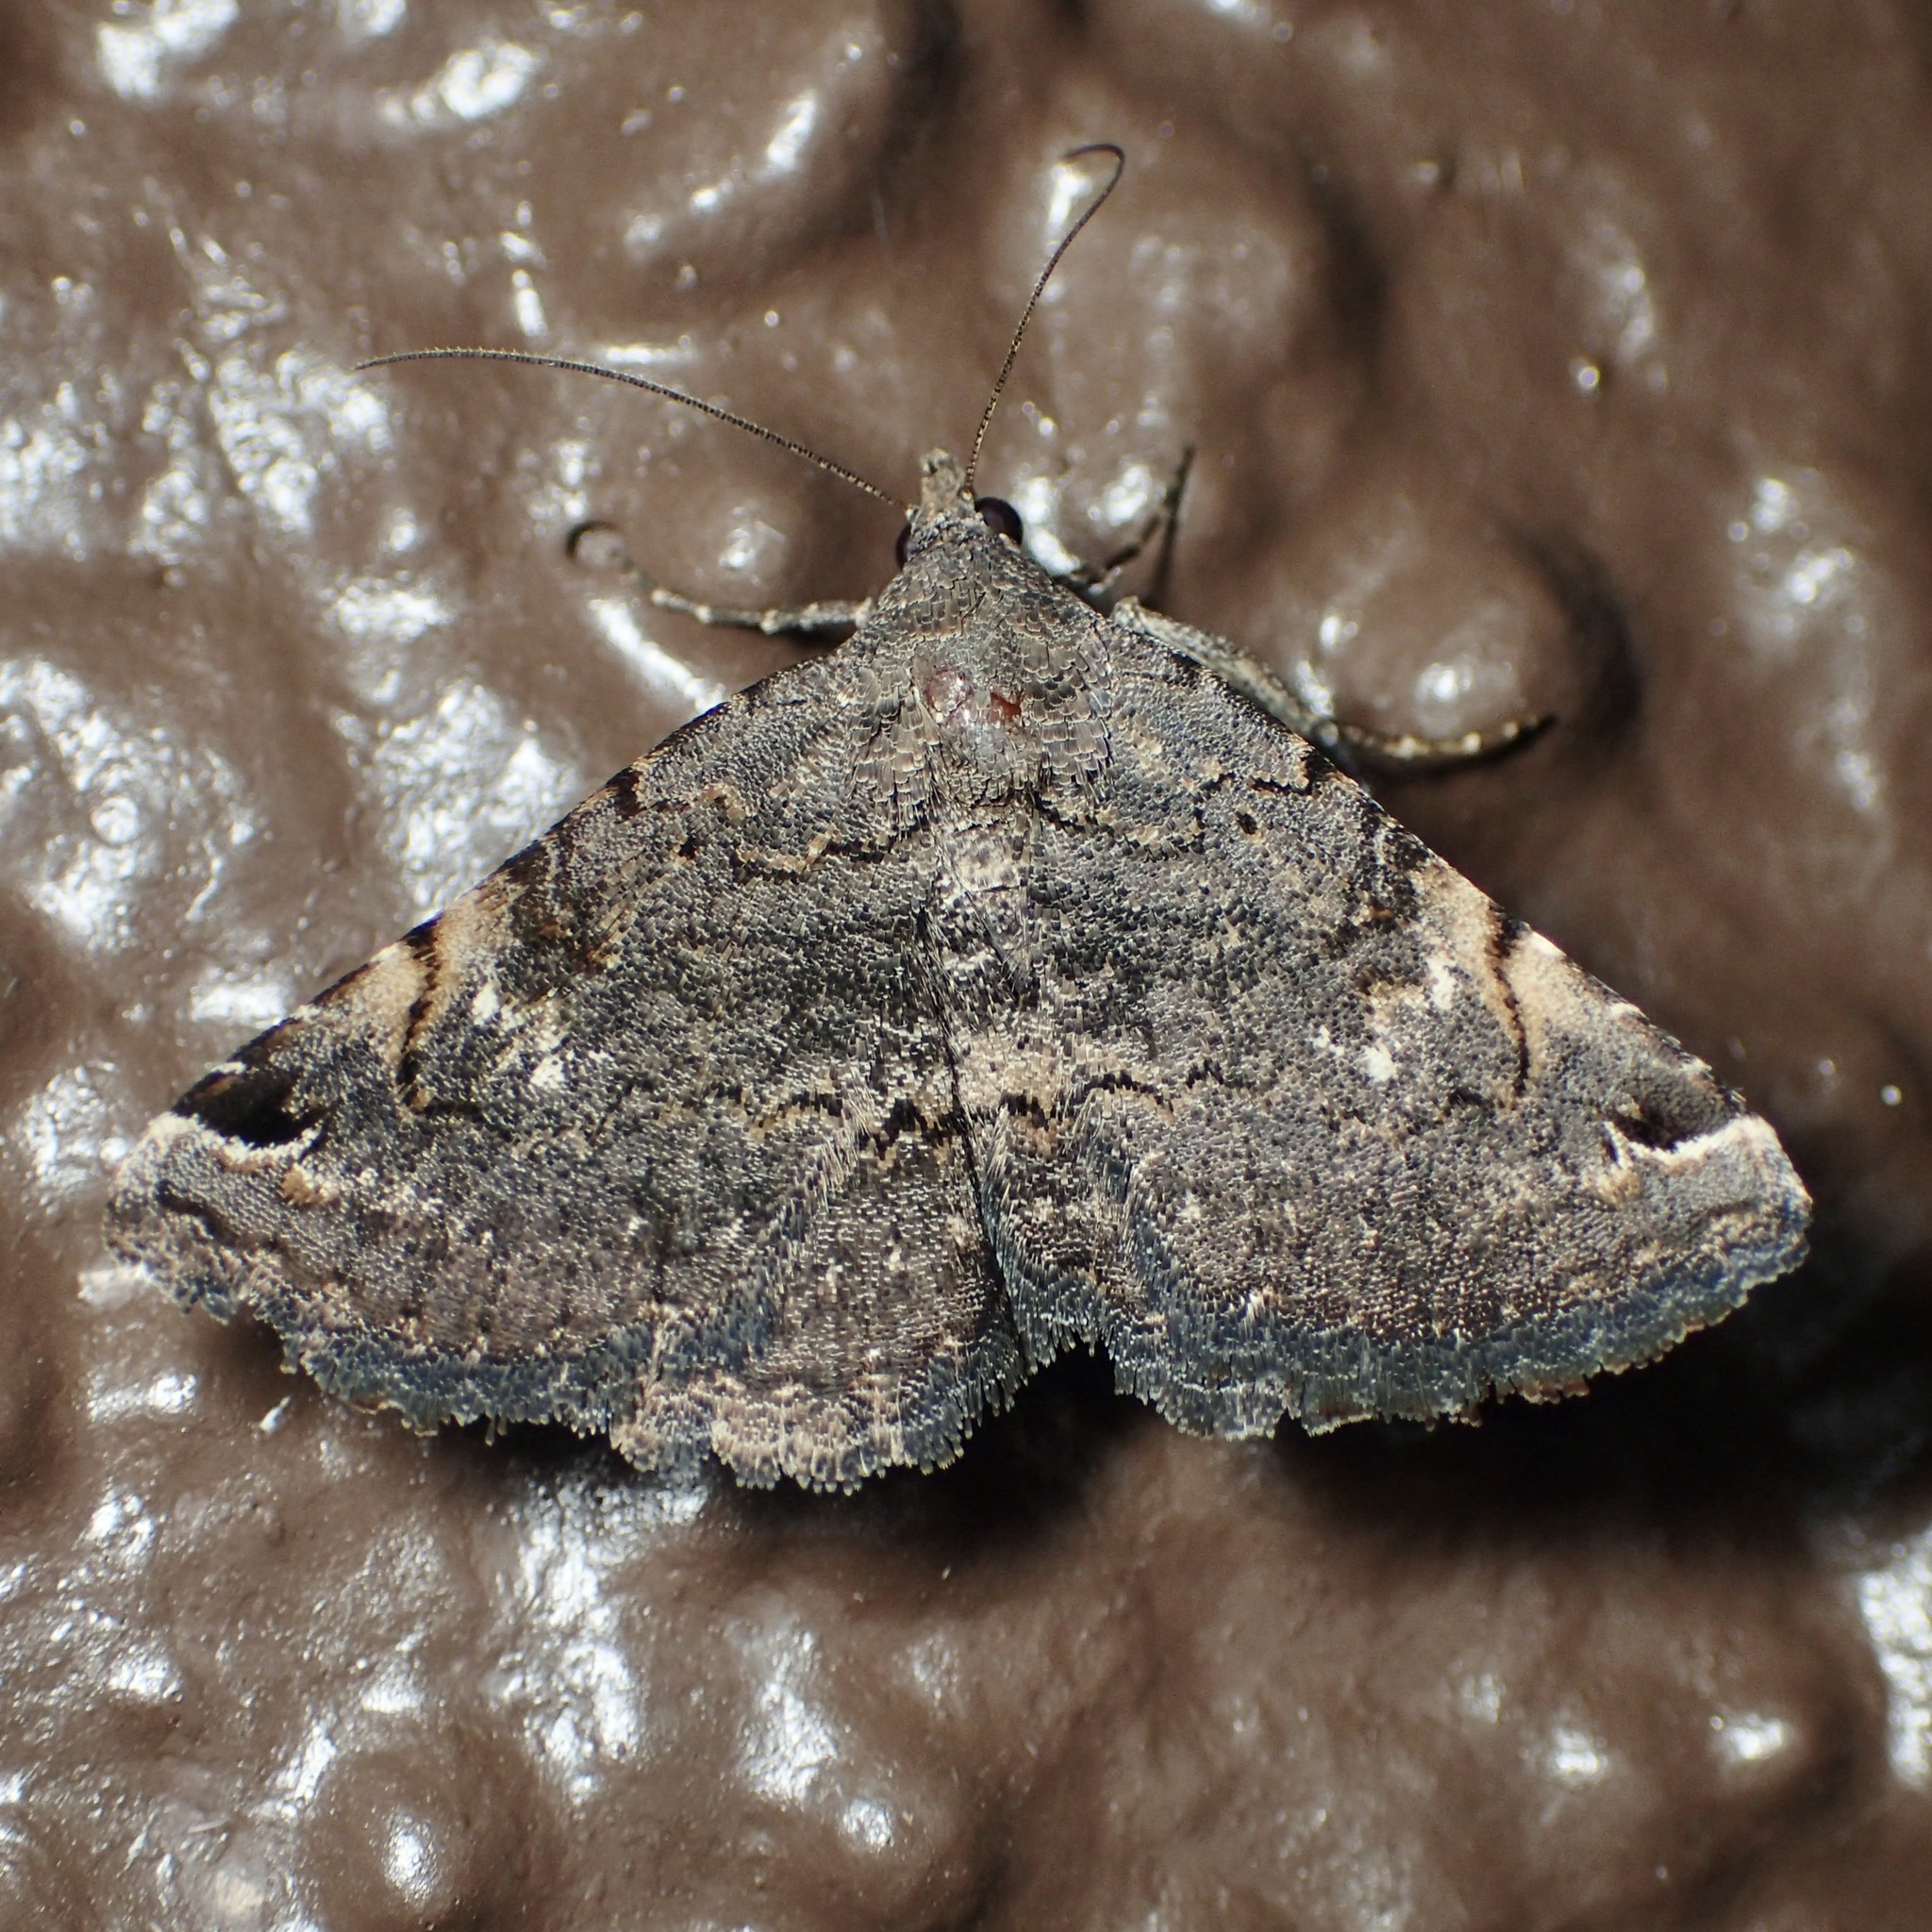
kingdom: Animalia
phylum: Arthropoda
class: Insecta
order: Lepidoptera
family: Erebidae
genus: Toxonprucha
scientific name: Toxonprucha crudelis
